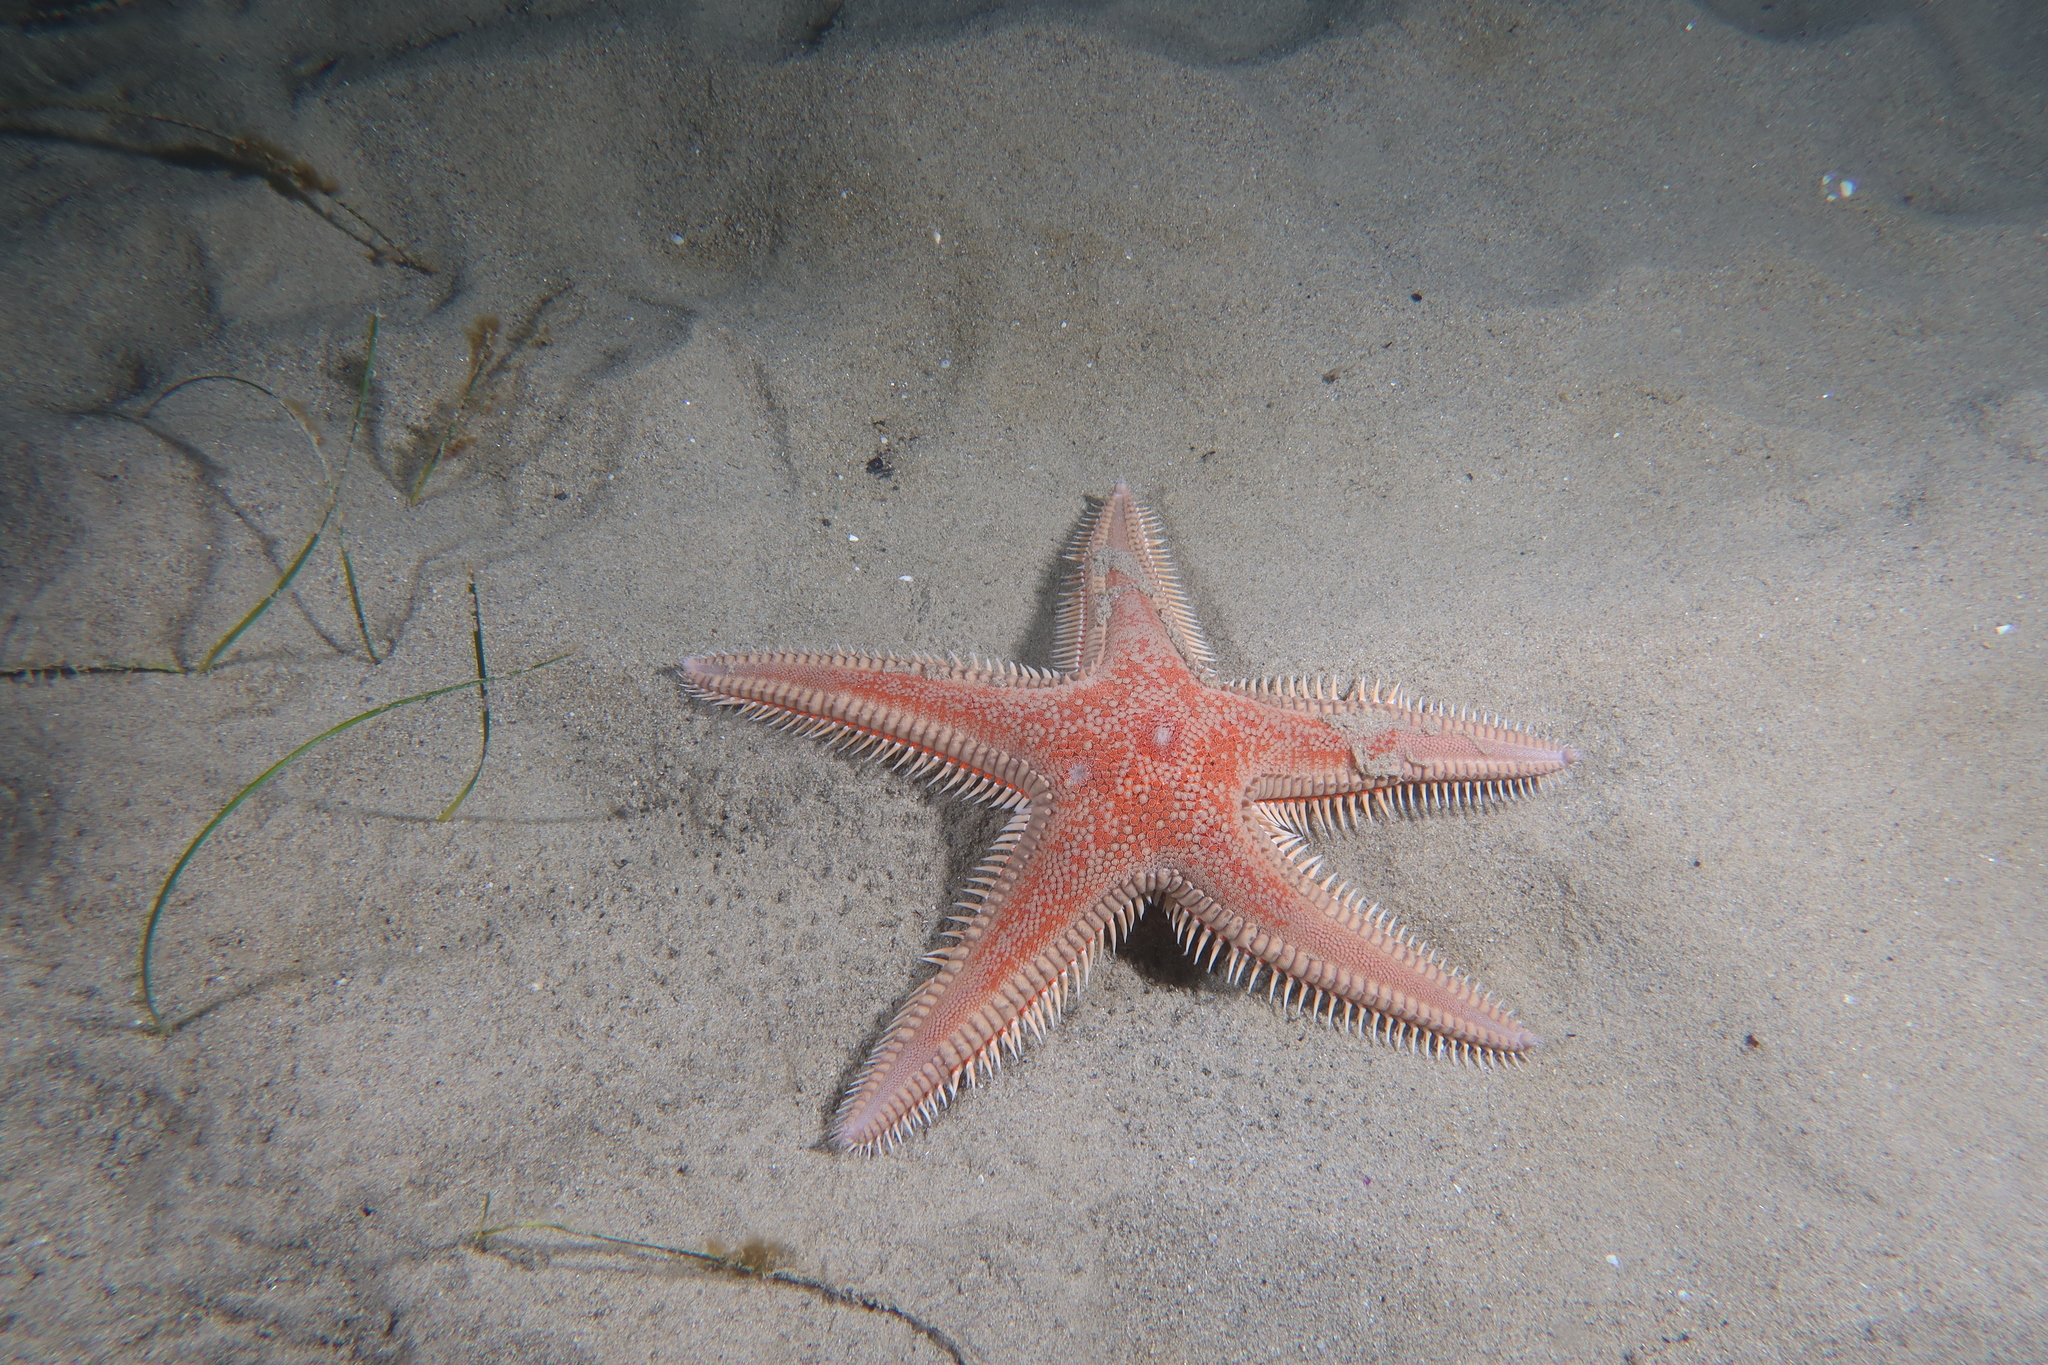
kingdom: Animalia
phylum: Echinodermata
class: Asteroidea
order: Paxillosida
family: Astropectinidae
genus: Astropecten
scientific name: Astropecten aranciacus
